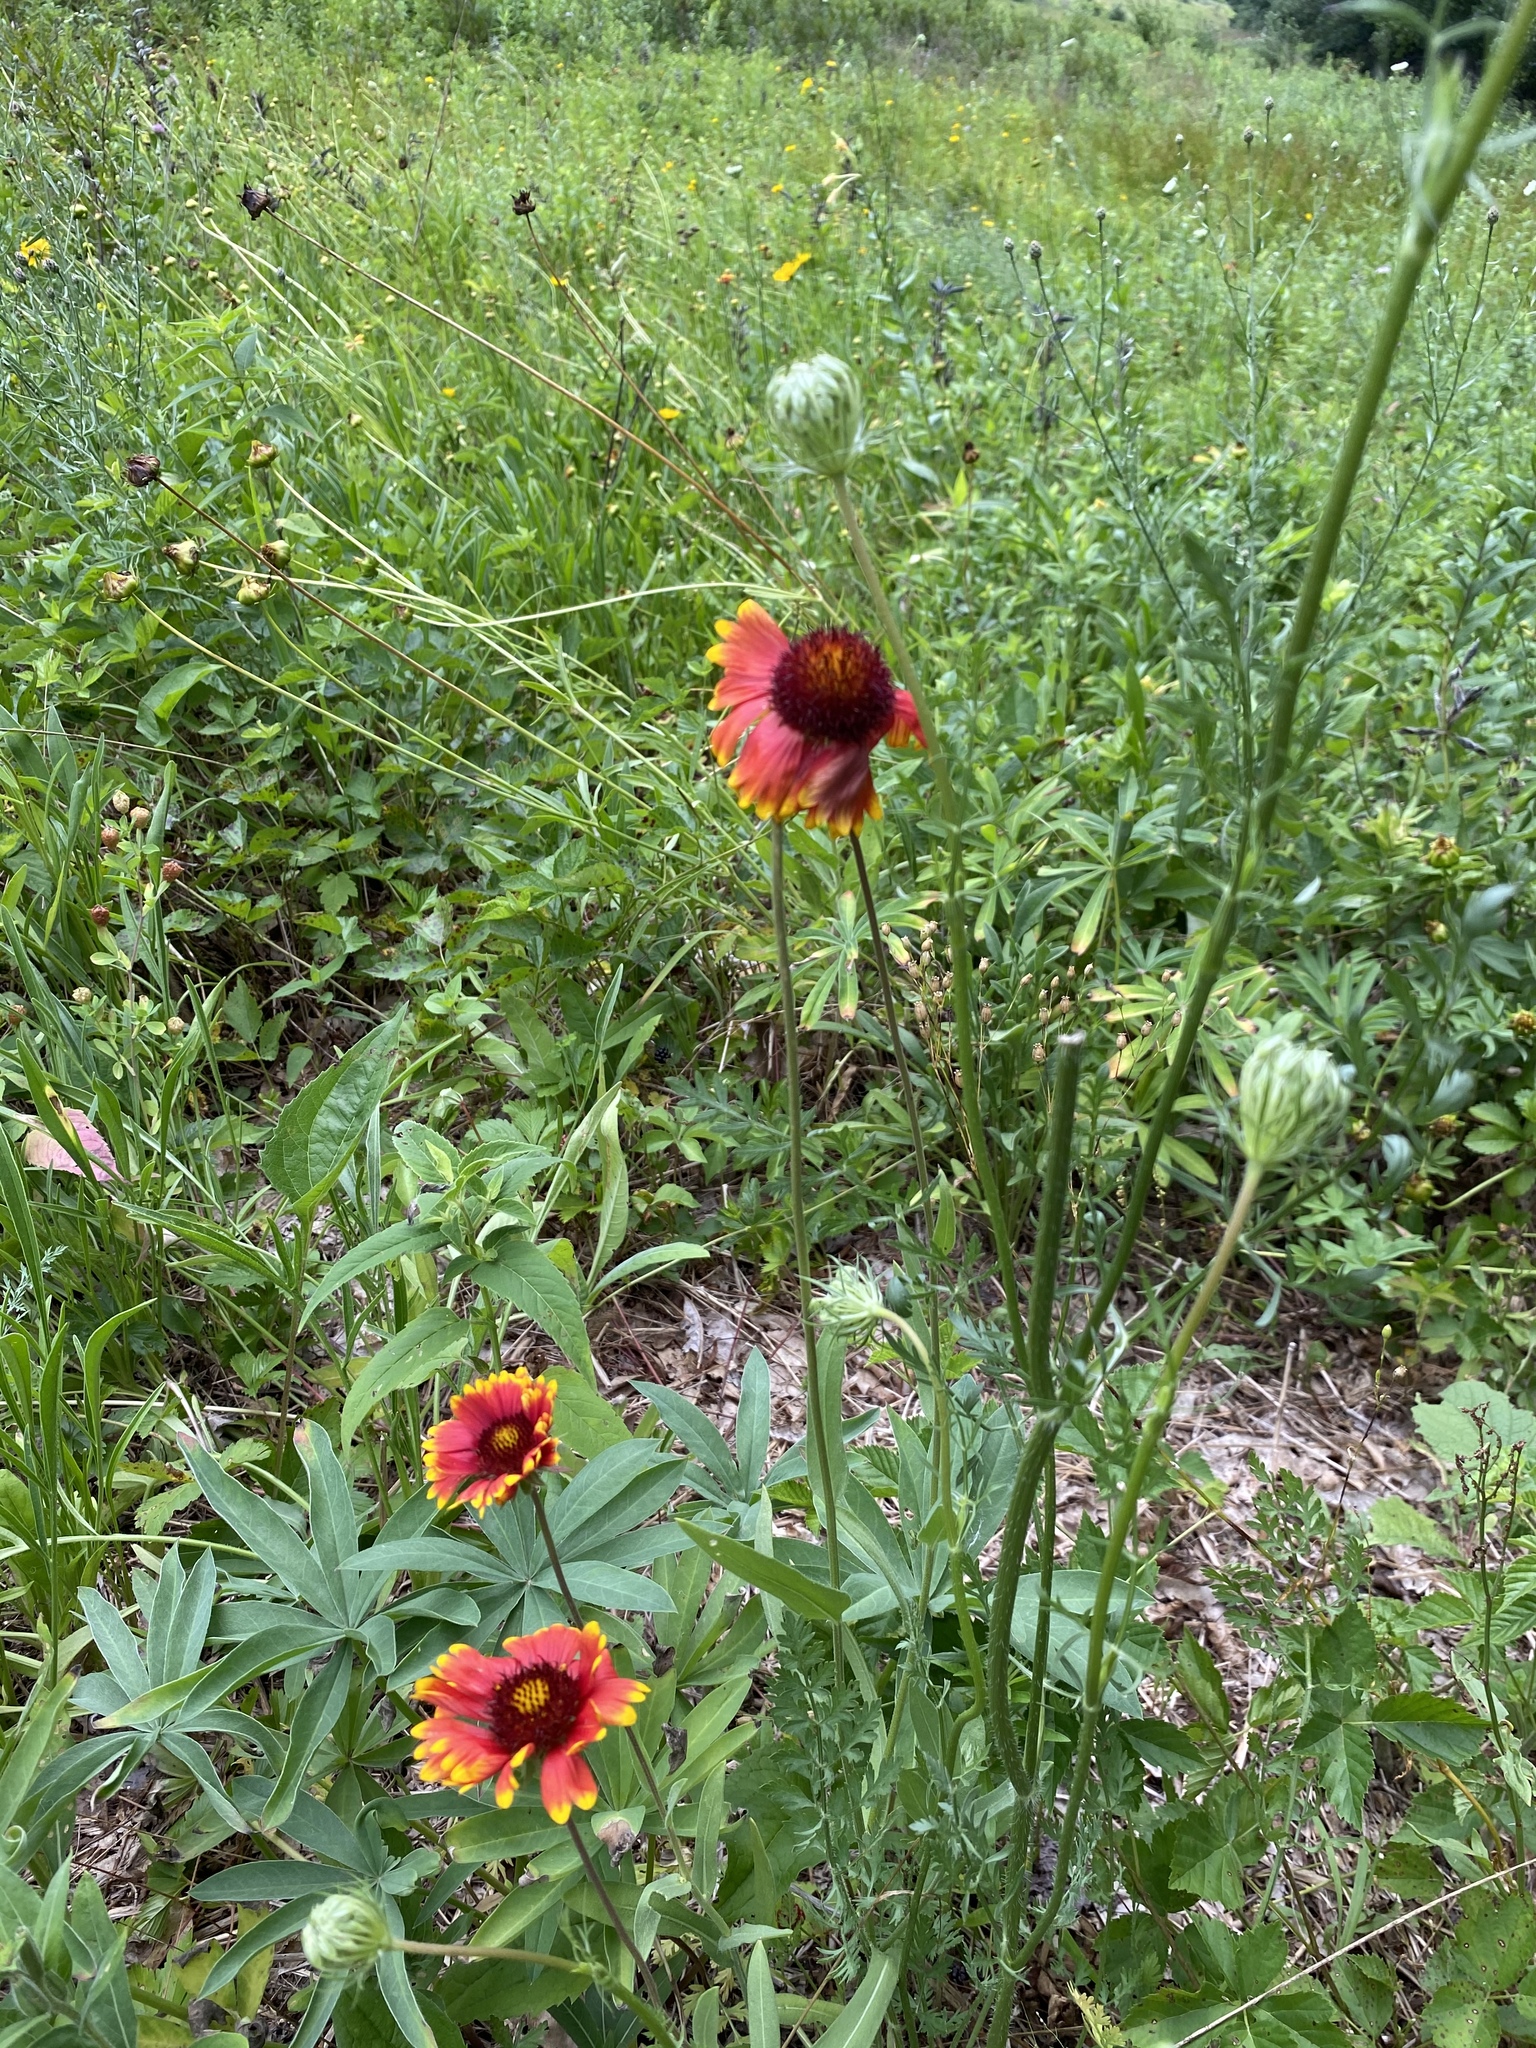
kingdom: Plantae
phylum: Tracheophyta
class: Magnoliopsida
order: Asterales
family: Asteraceae
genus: Gaillardia
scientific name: Gaillardia pulchella
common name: Firewheel
